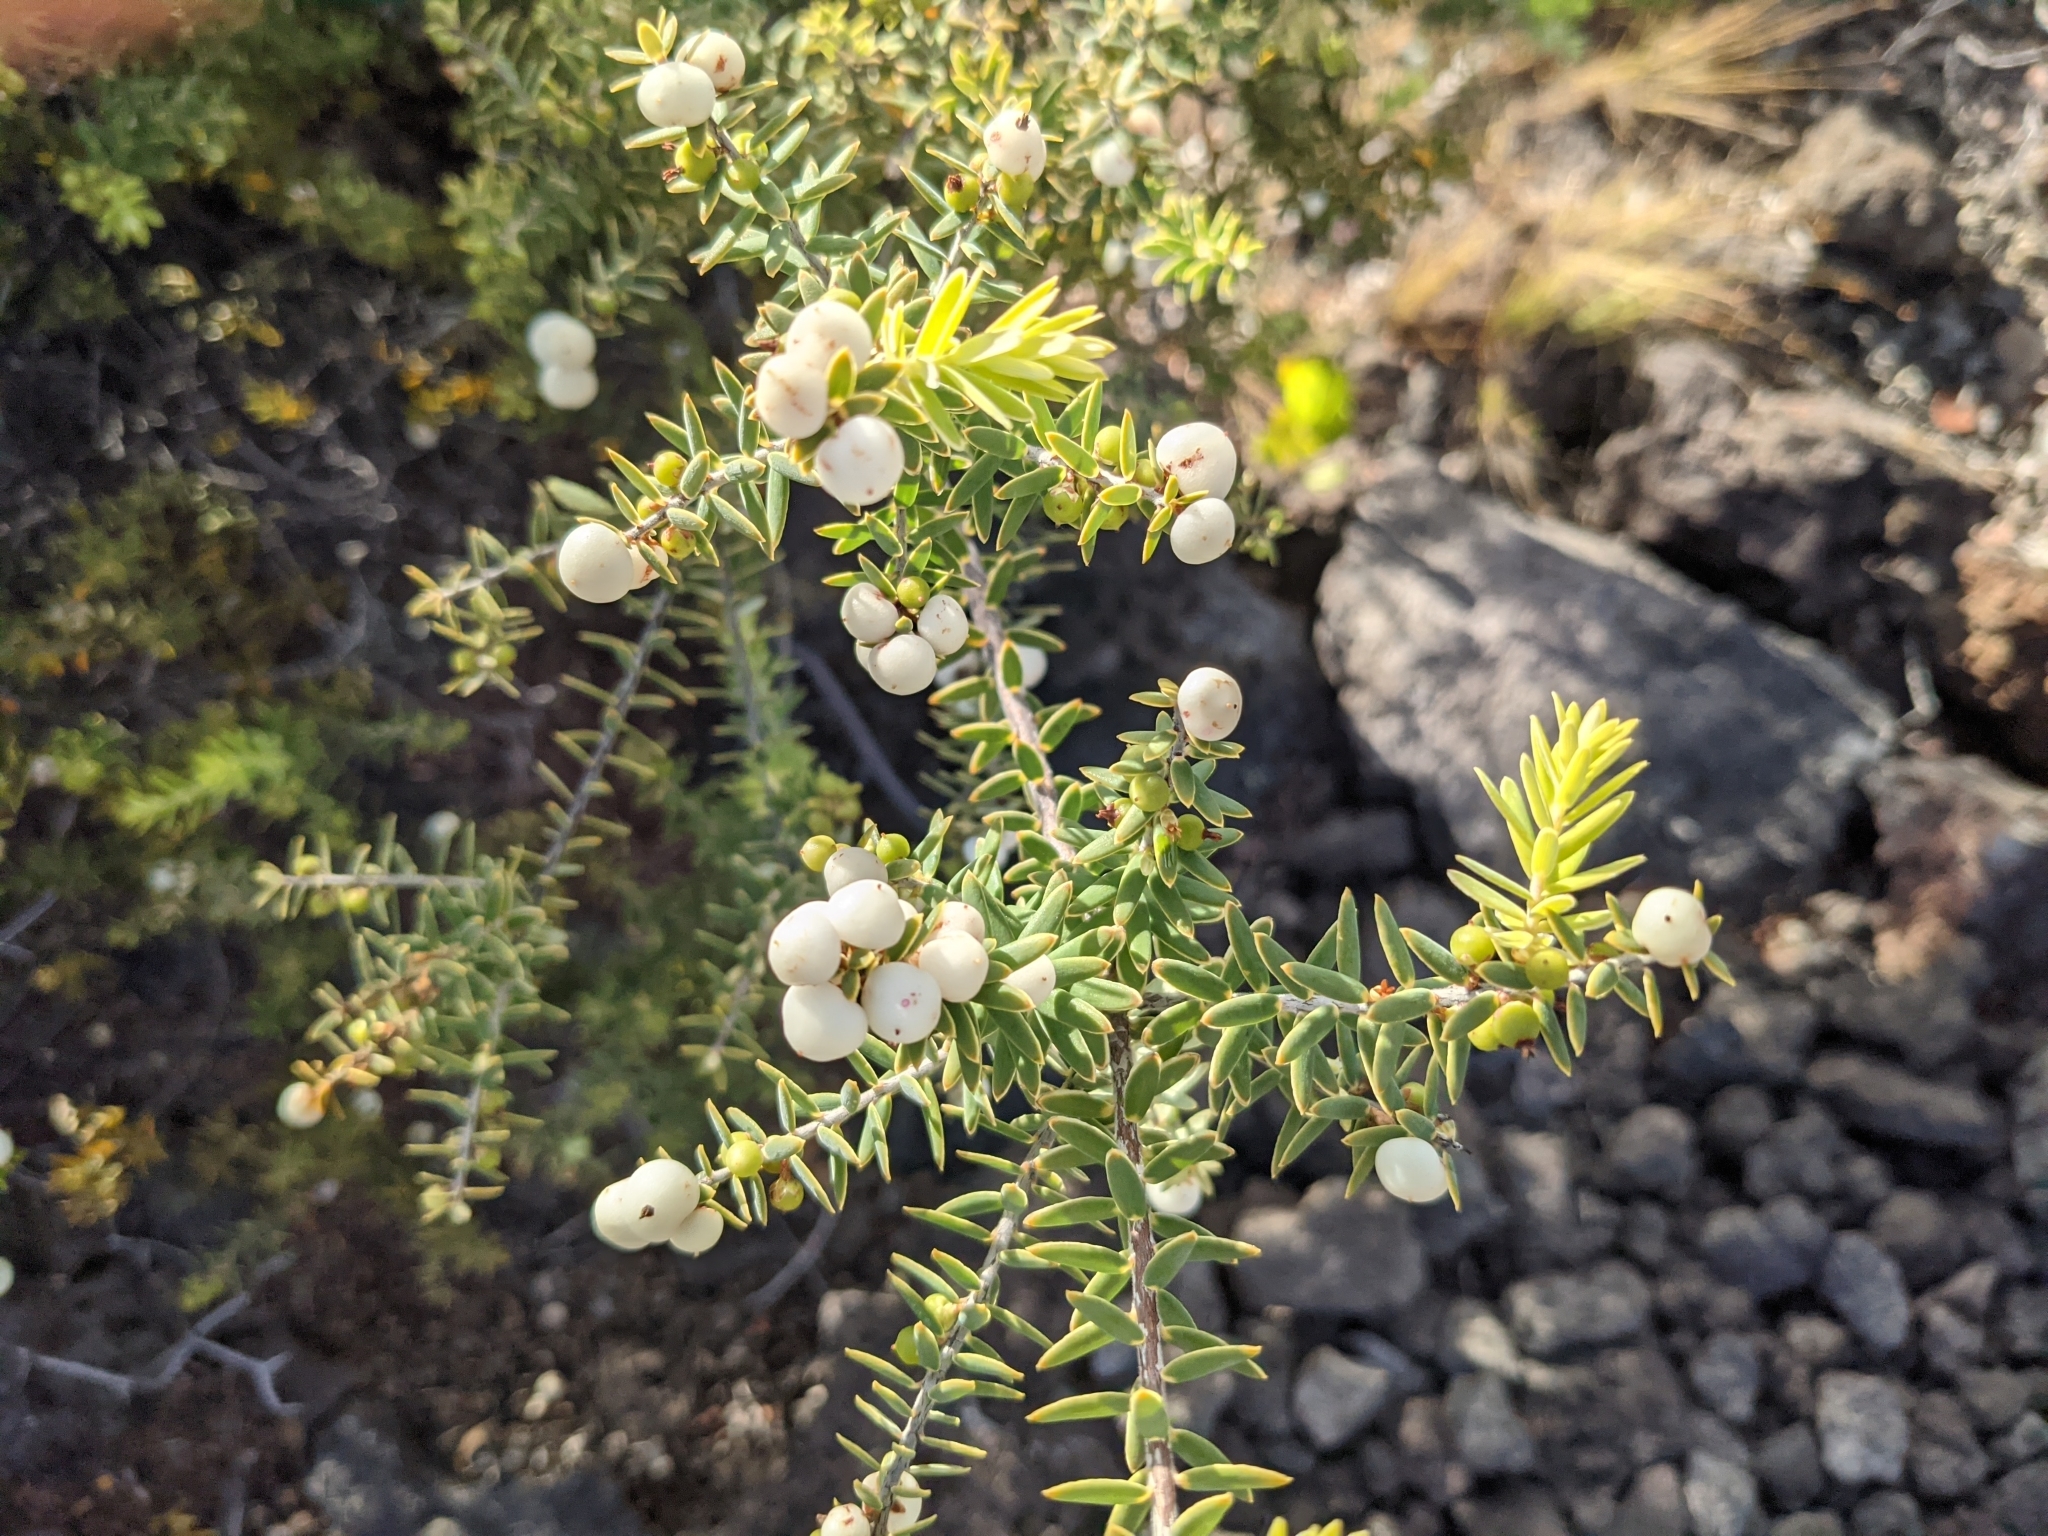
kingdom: Plantae
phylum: Tracheophyta
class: Magnoliopsida
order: Ericales
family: Ericaceae
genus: Leptecophylla
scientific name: Leptecophylla tameiameiae
